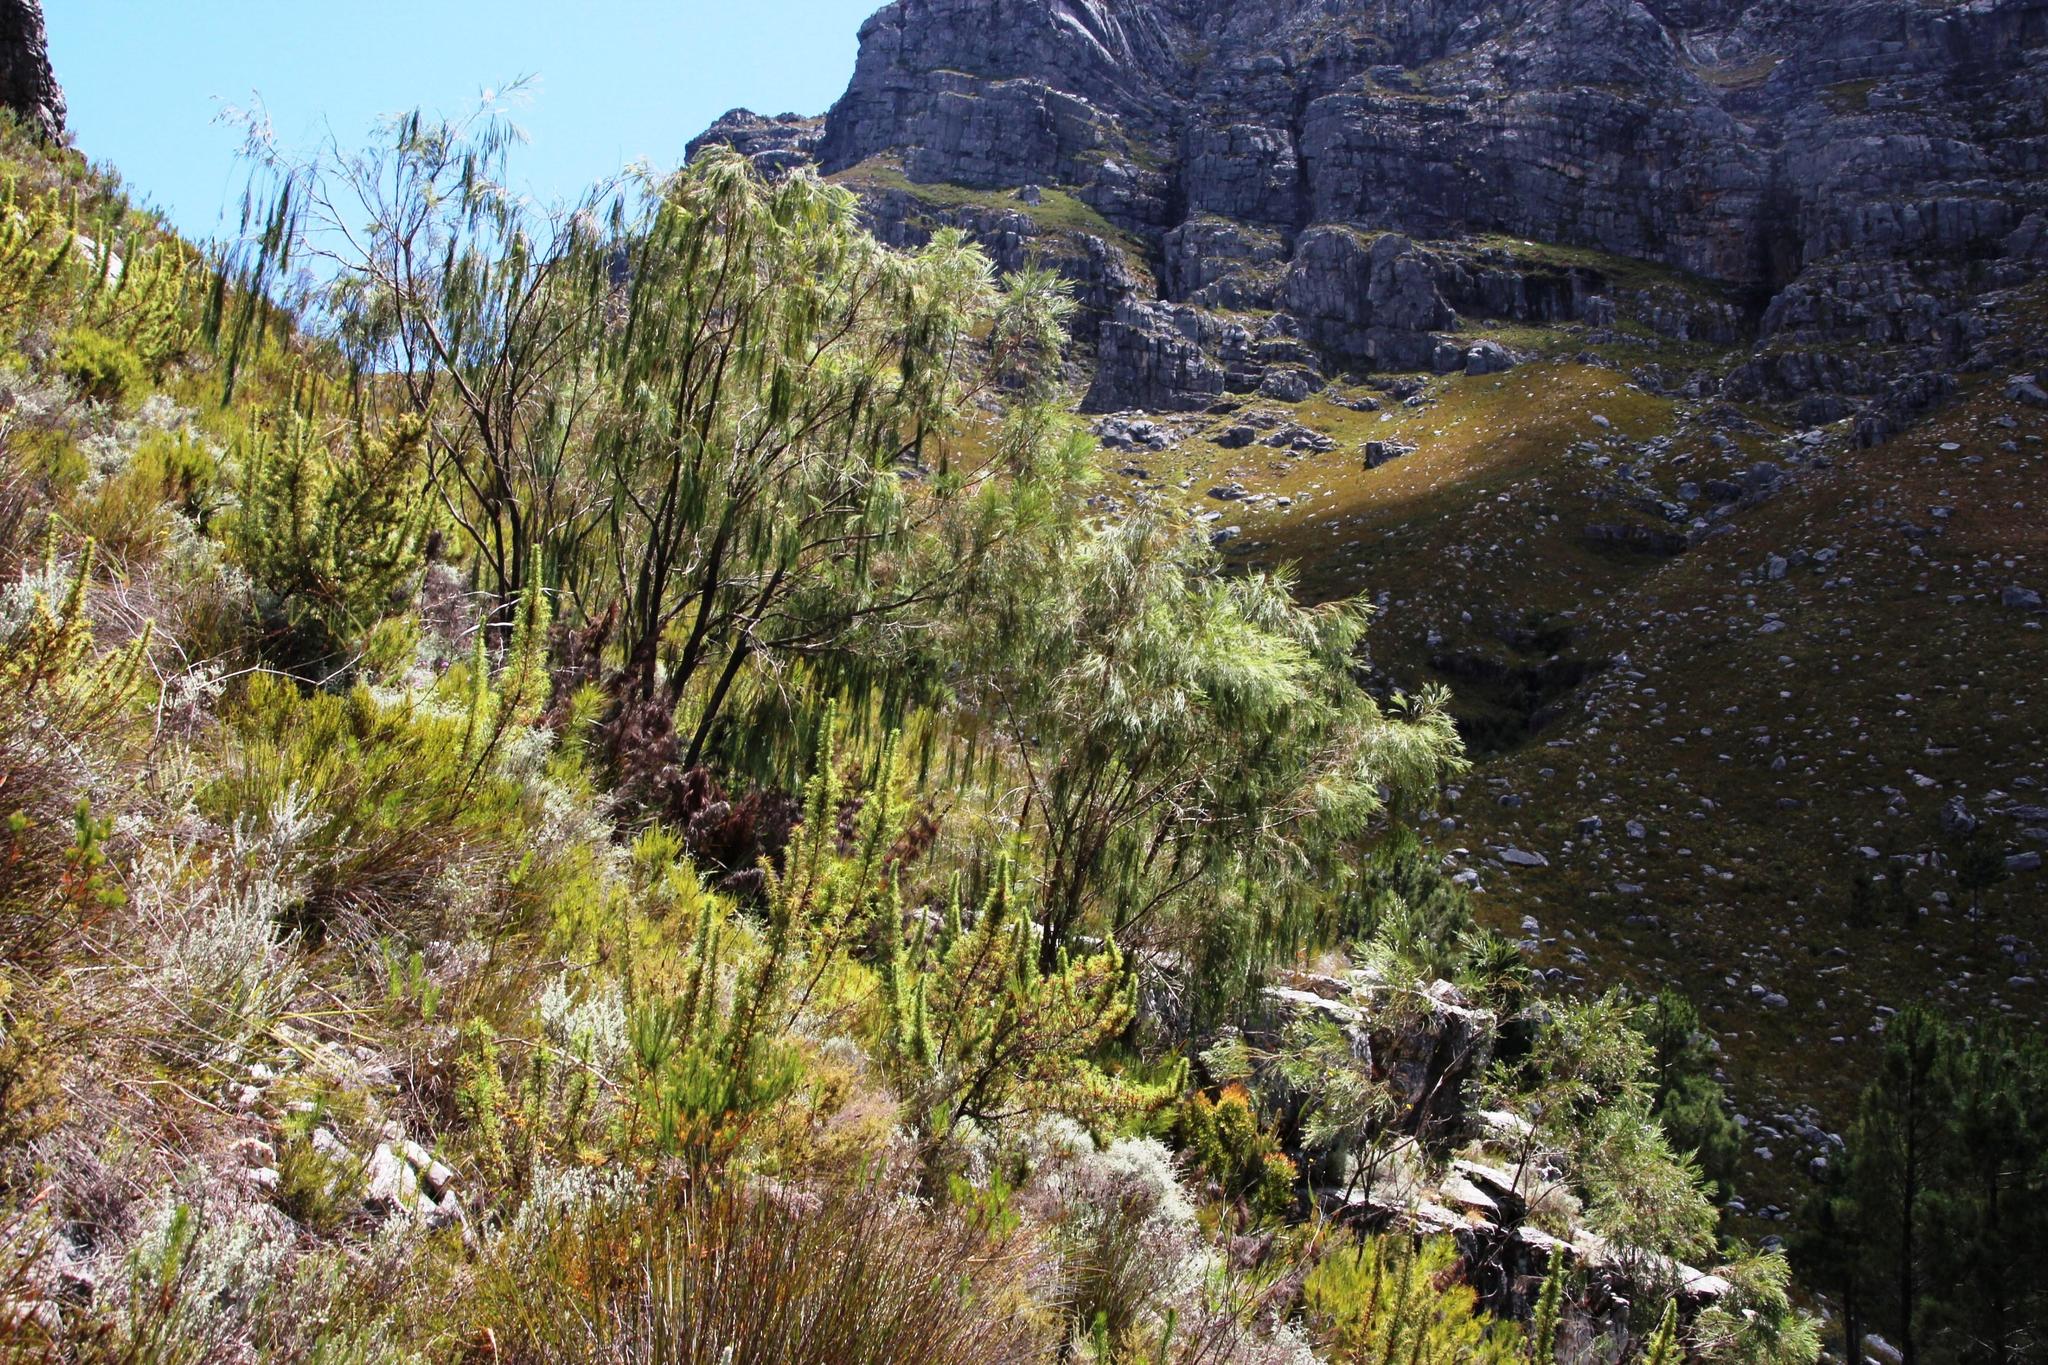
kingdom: Plantae
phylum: Tracheophyta
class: Magnoliopsida
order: Fabales
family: Fabaceae
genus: Psoralea
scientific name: Psoralea fleta
